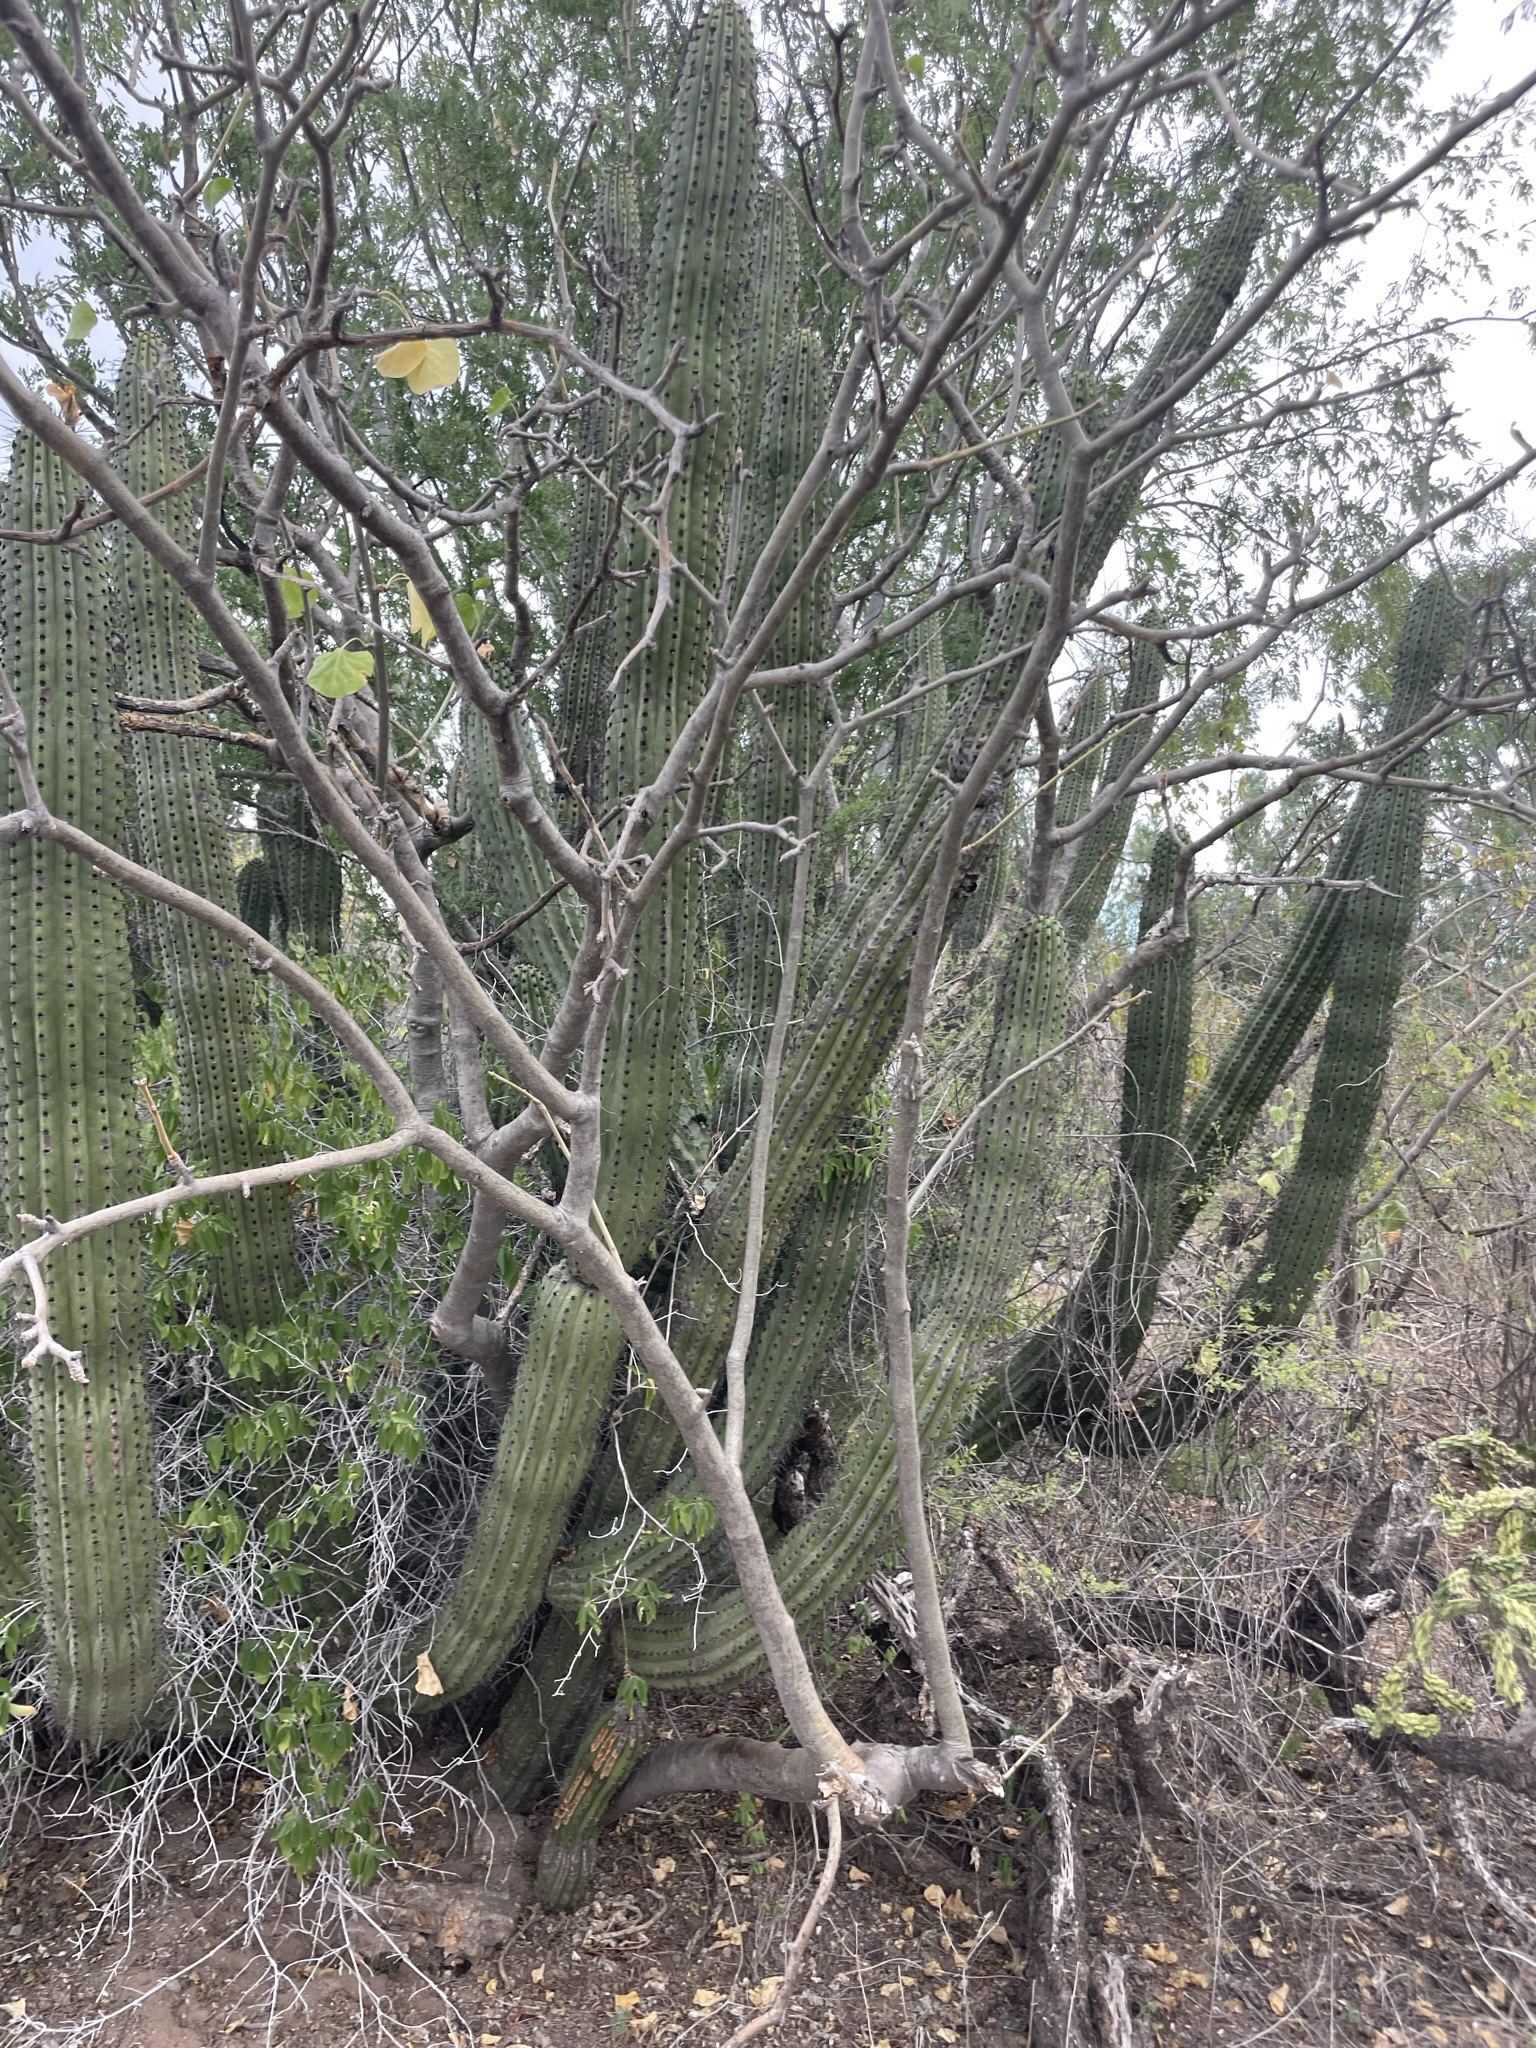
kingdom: Plantae
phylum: Tracheophyta
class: Magnoliopsida
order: Caryophyllales
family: Cactaceae
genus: Stenocereus
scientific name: Stenocereus thurberi
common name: Organ pipe cactus
